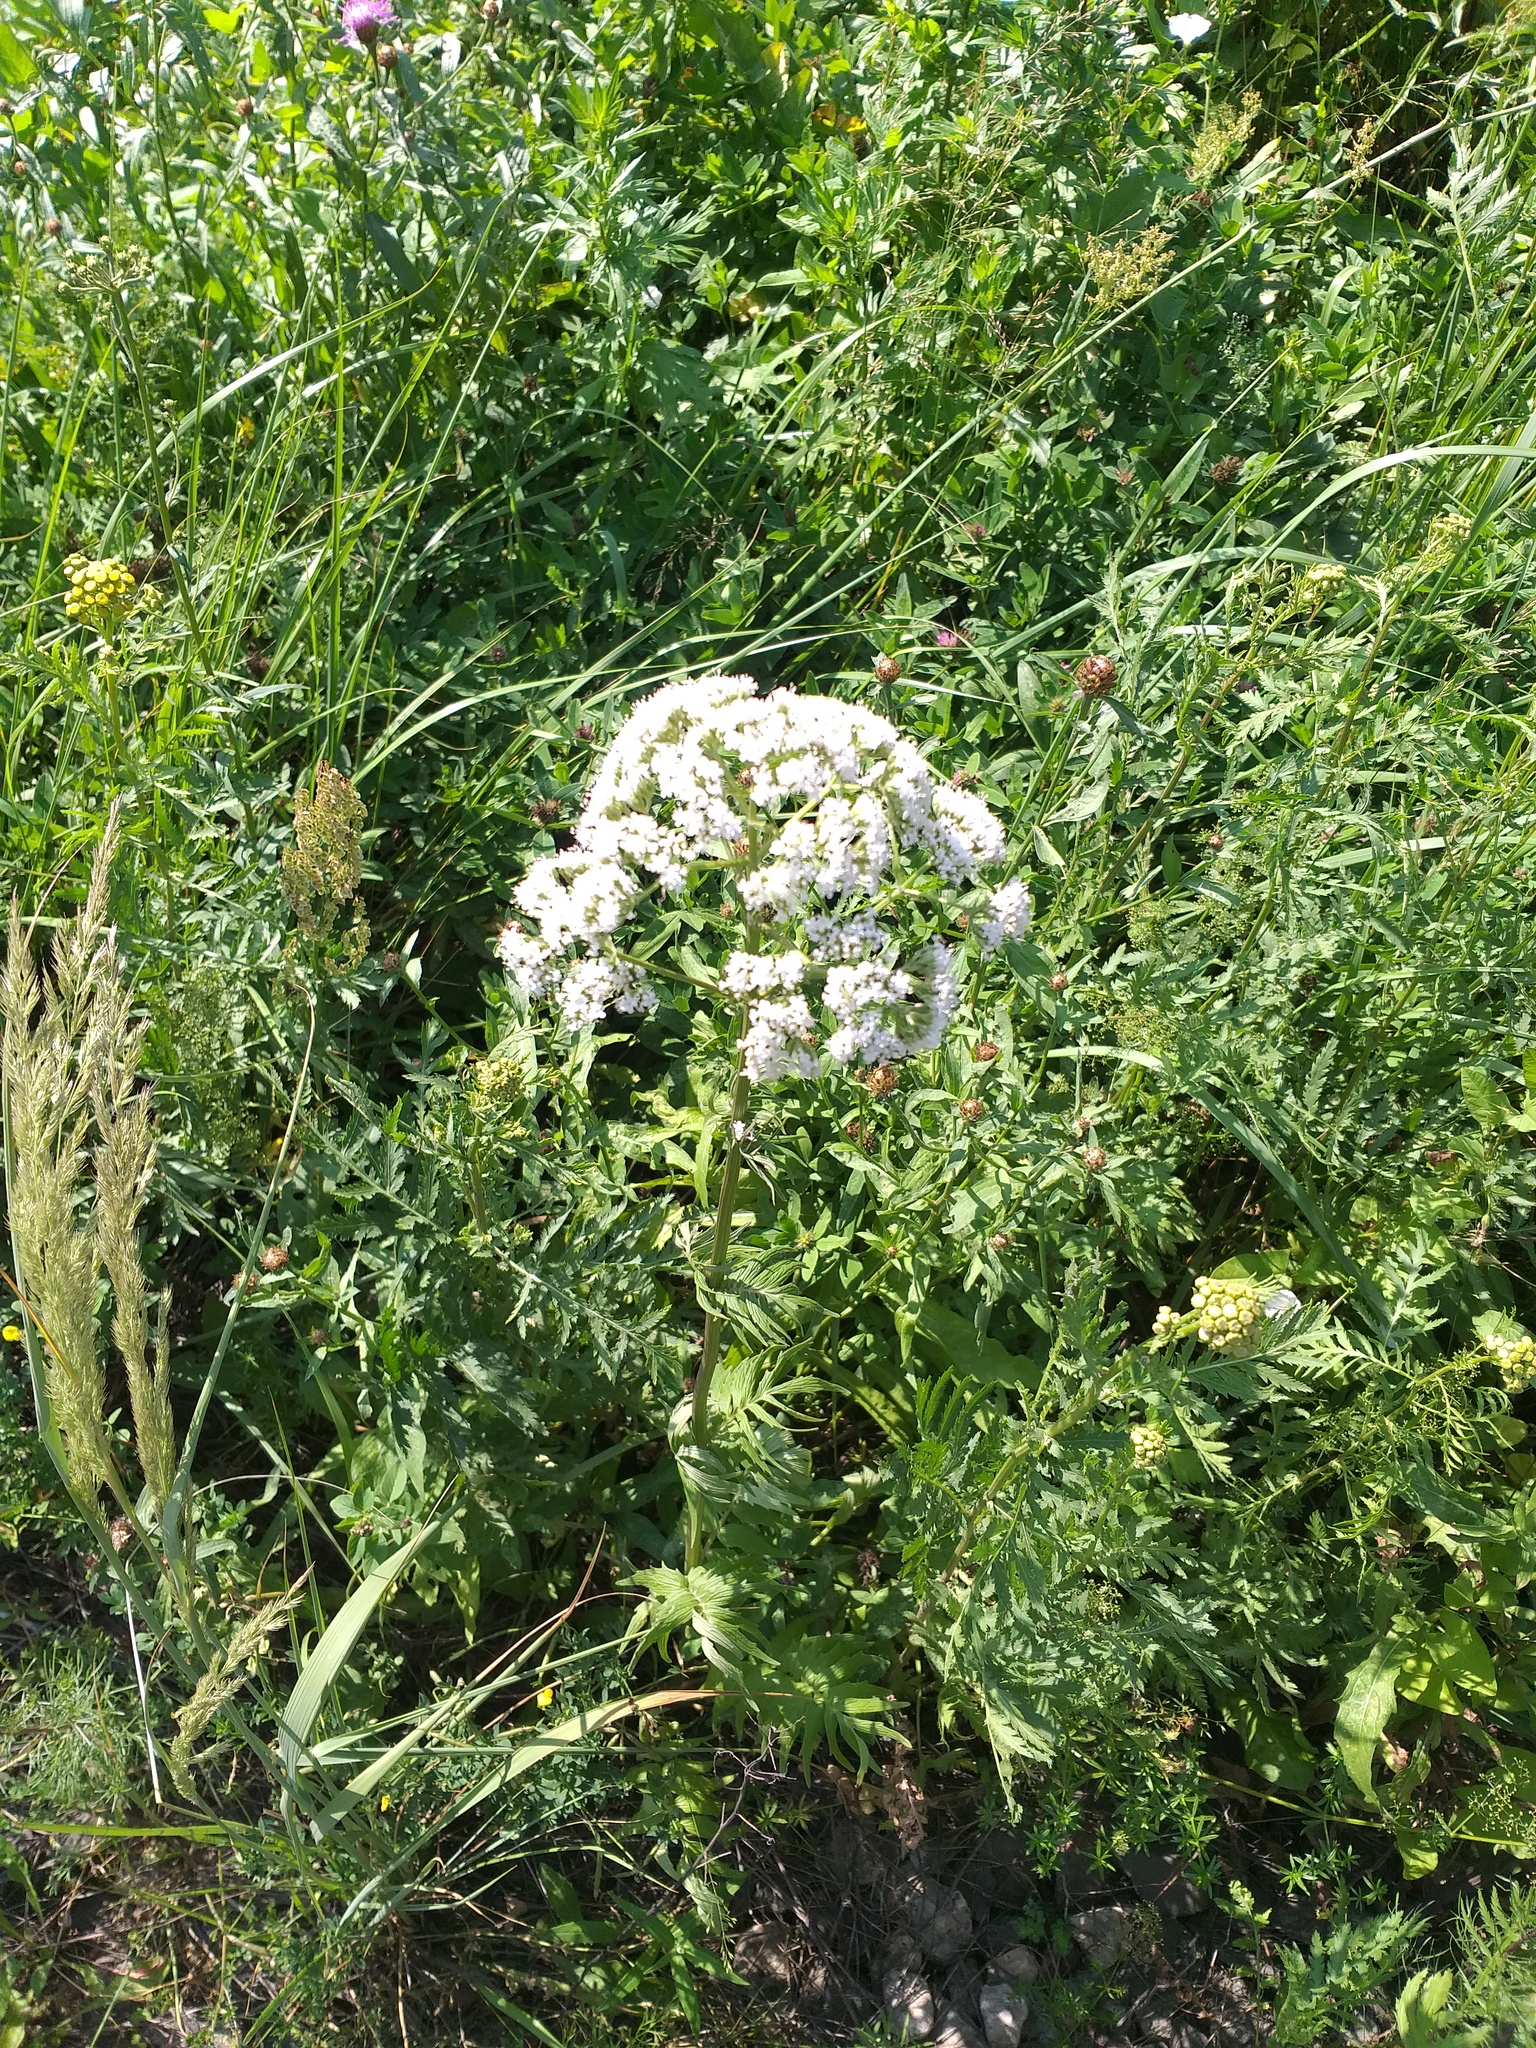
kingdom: Plantae
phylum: Tracheophyta
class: Magnoliopsida
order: Dipsacales
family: Caprifoliaceae
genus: Valeriana
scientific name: Valeriana officinalis
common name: Common valerian
